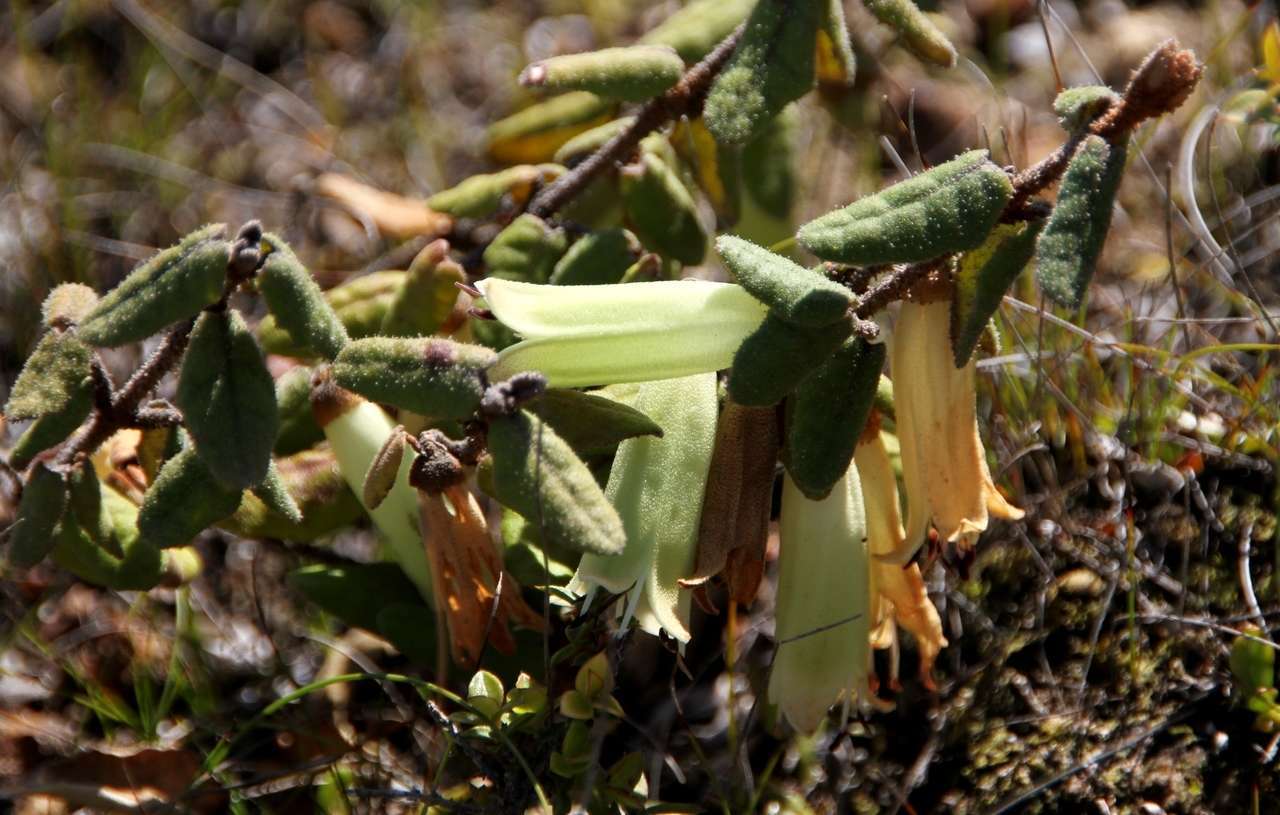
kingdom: Plantae
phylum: Tracheophyta
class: Magnoliopsida
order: Sapindales
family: Rutaceae
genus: Correa
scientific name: Correa reflexa
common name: Common correa
